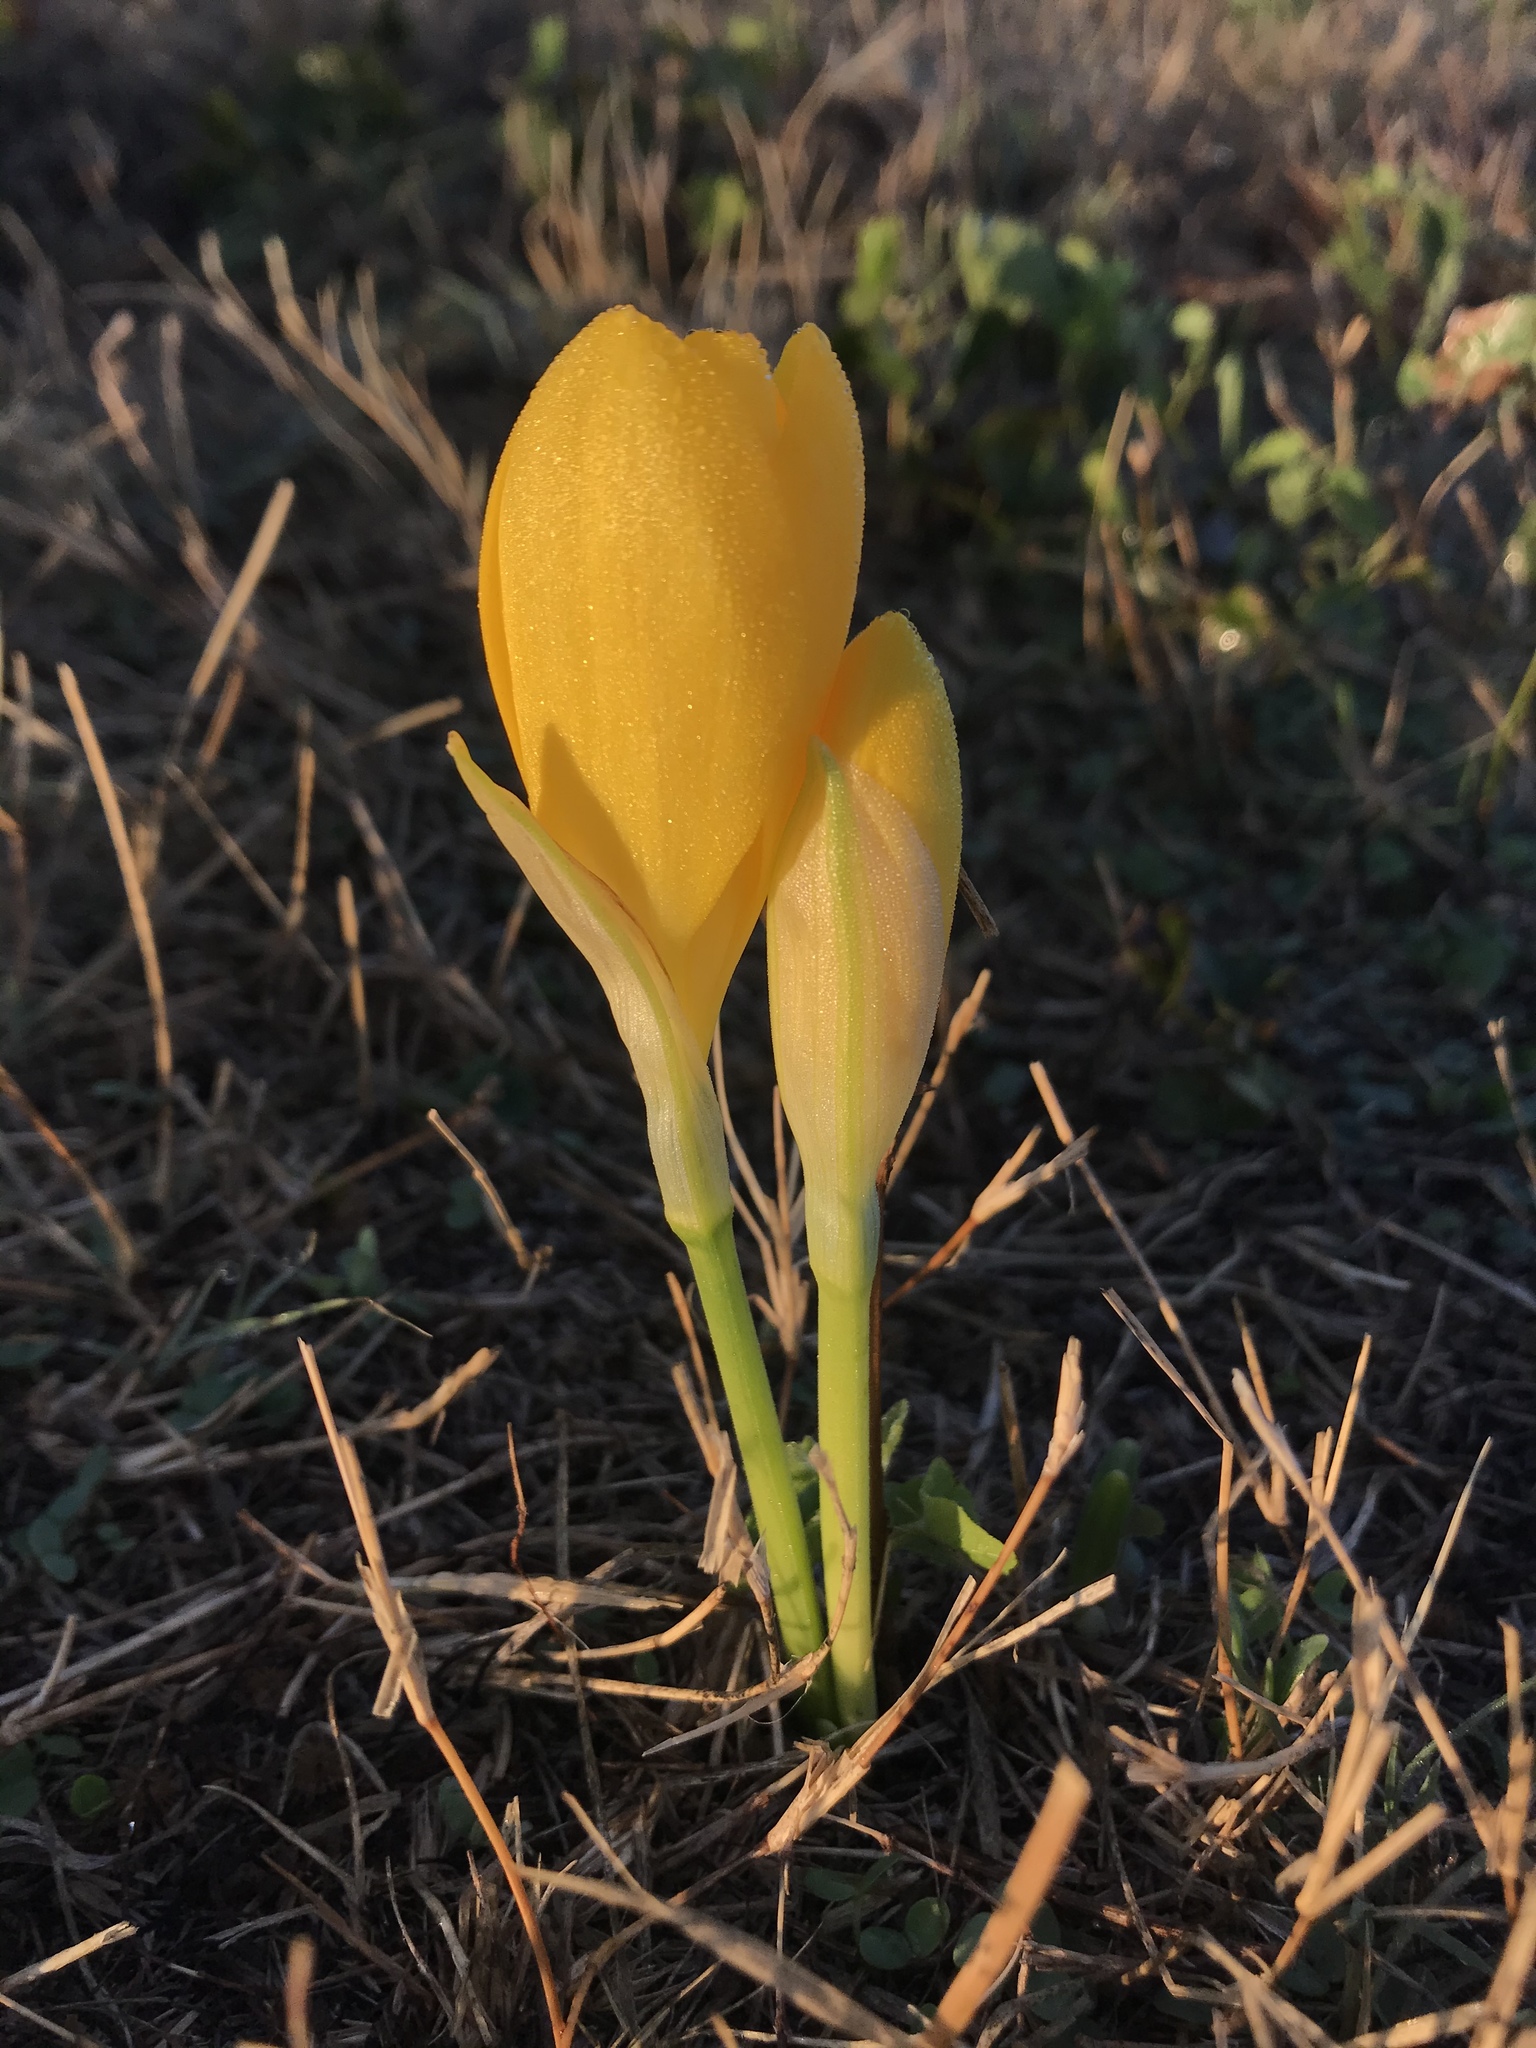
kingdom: Plantae
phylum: Tracheophyta
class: Liliopsida
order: Asparagales
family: Amaryllidaceae
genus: Sternbergia
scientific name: Sternbergia lutea
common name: Winter daffodil
